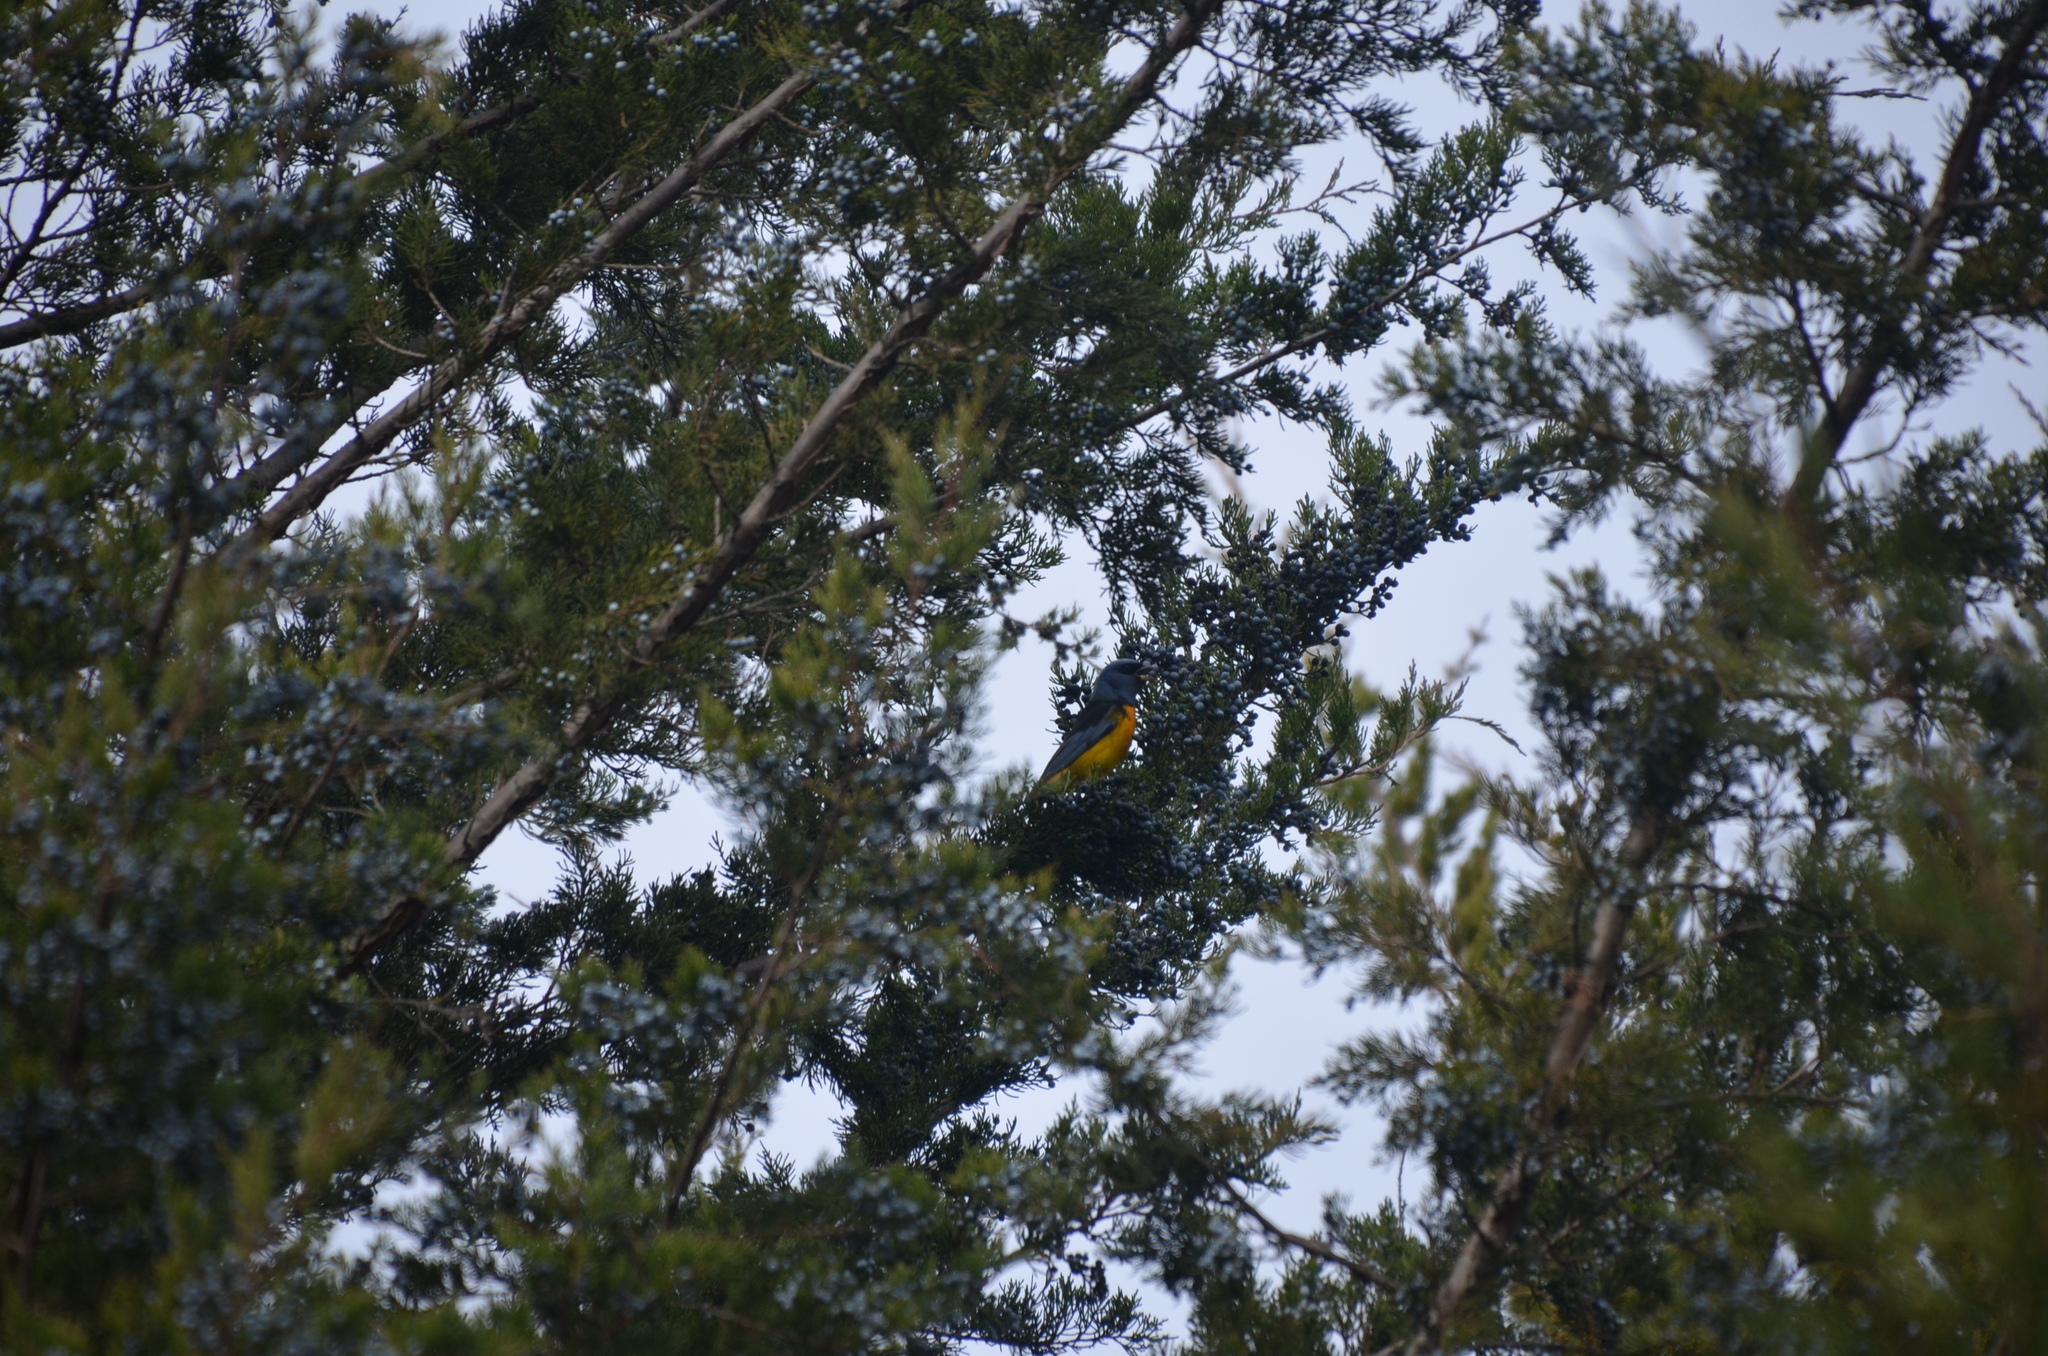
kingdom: Animalia
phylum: Chordata
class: Aves
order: Passeriformes
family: Thraupidae
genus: Rauenia
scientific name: Rauenia bonariensis
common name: Blue-and-yellow tanager
